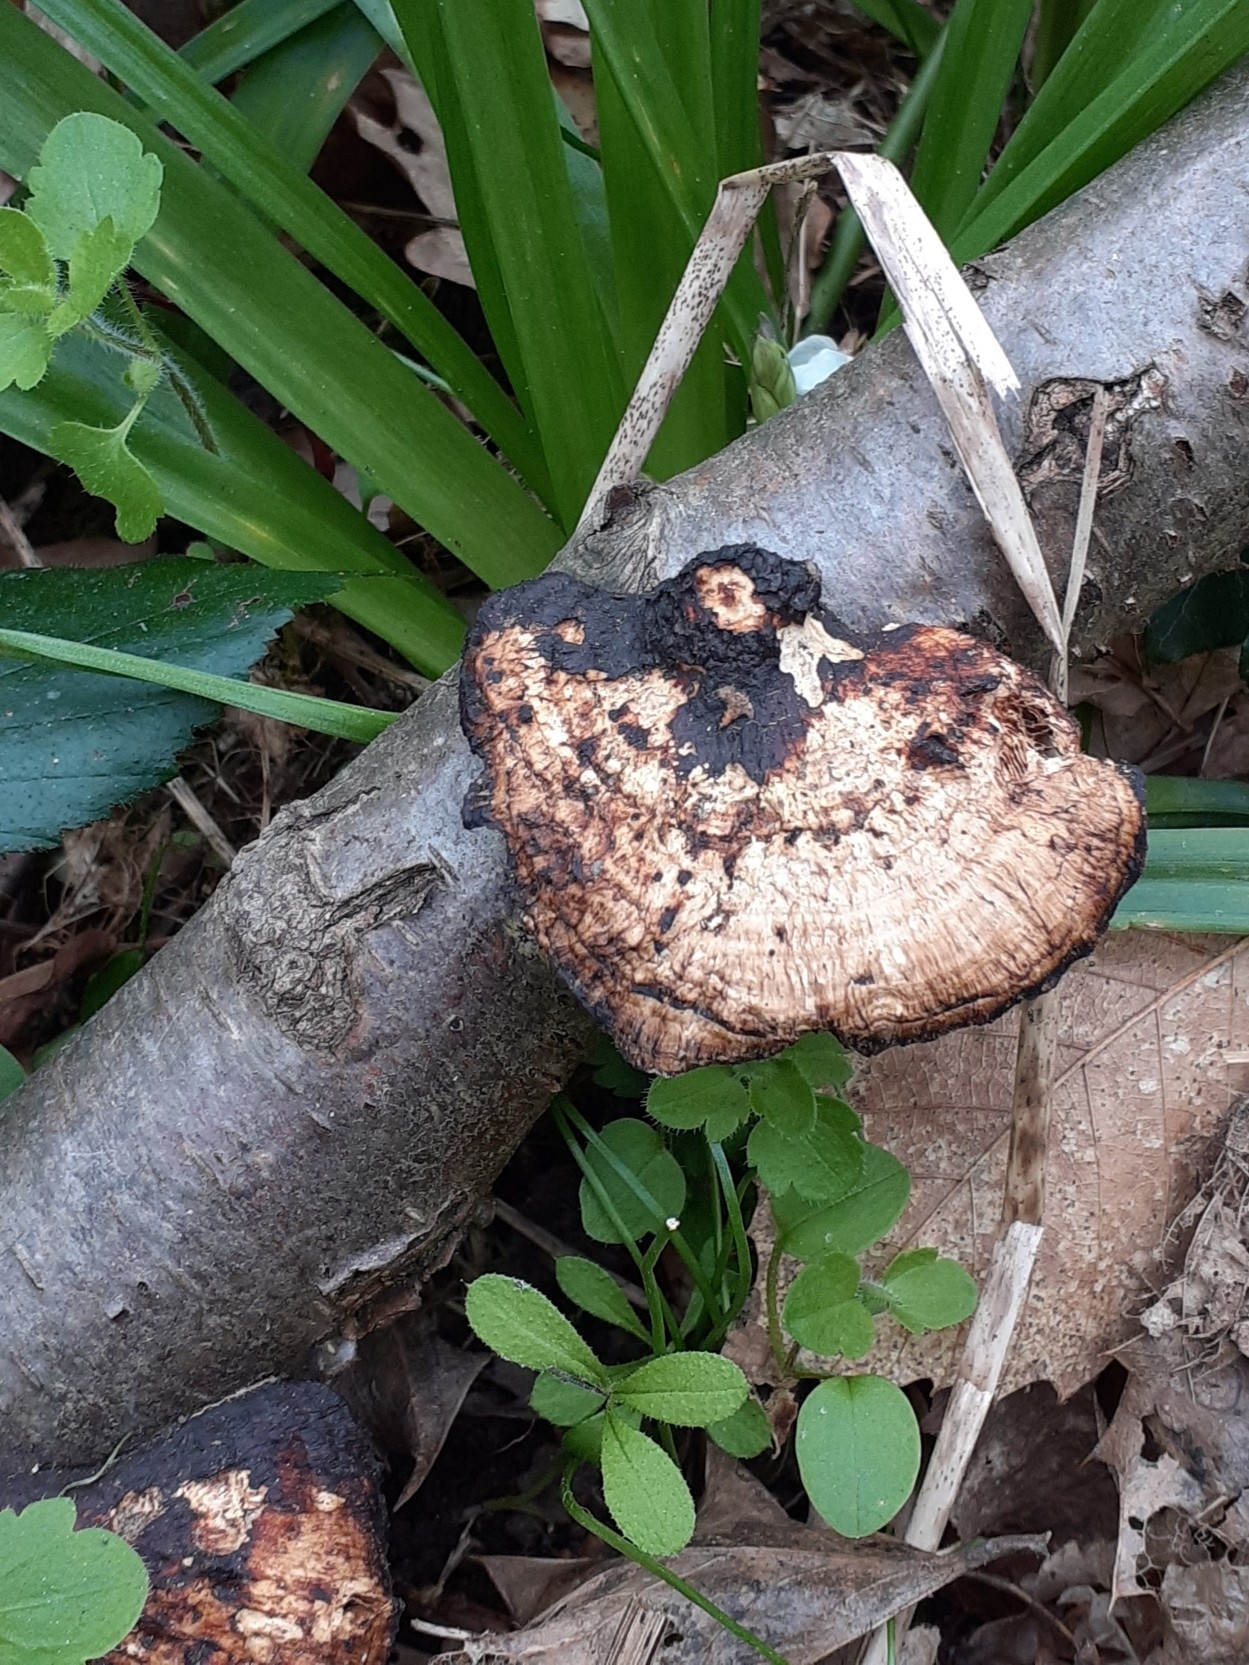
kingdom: Fungi
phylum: Basidiomycota
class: Agaricomycetes
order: Polyporales
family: Polyporaceae
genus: Daedaleopsis
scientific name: Daedaleopsis confragosa
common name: Blushing bracket
